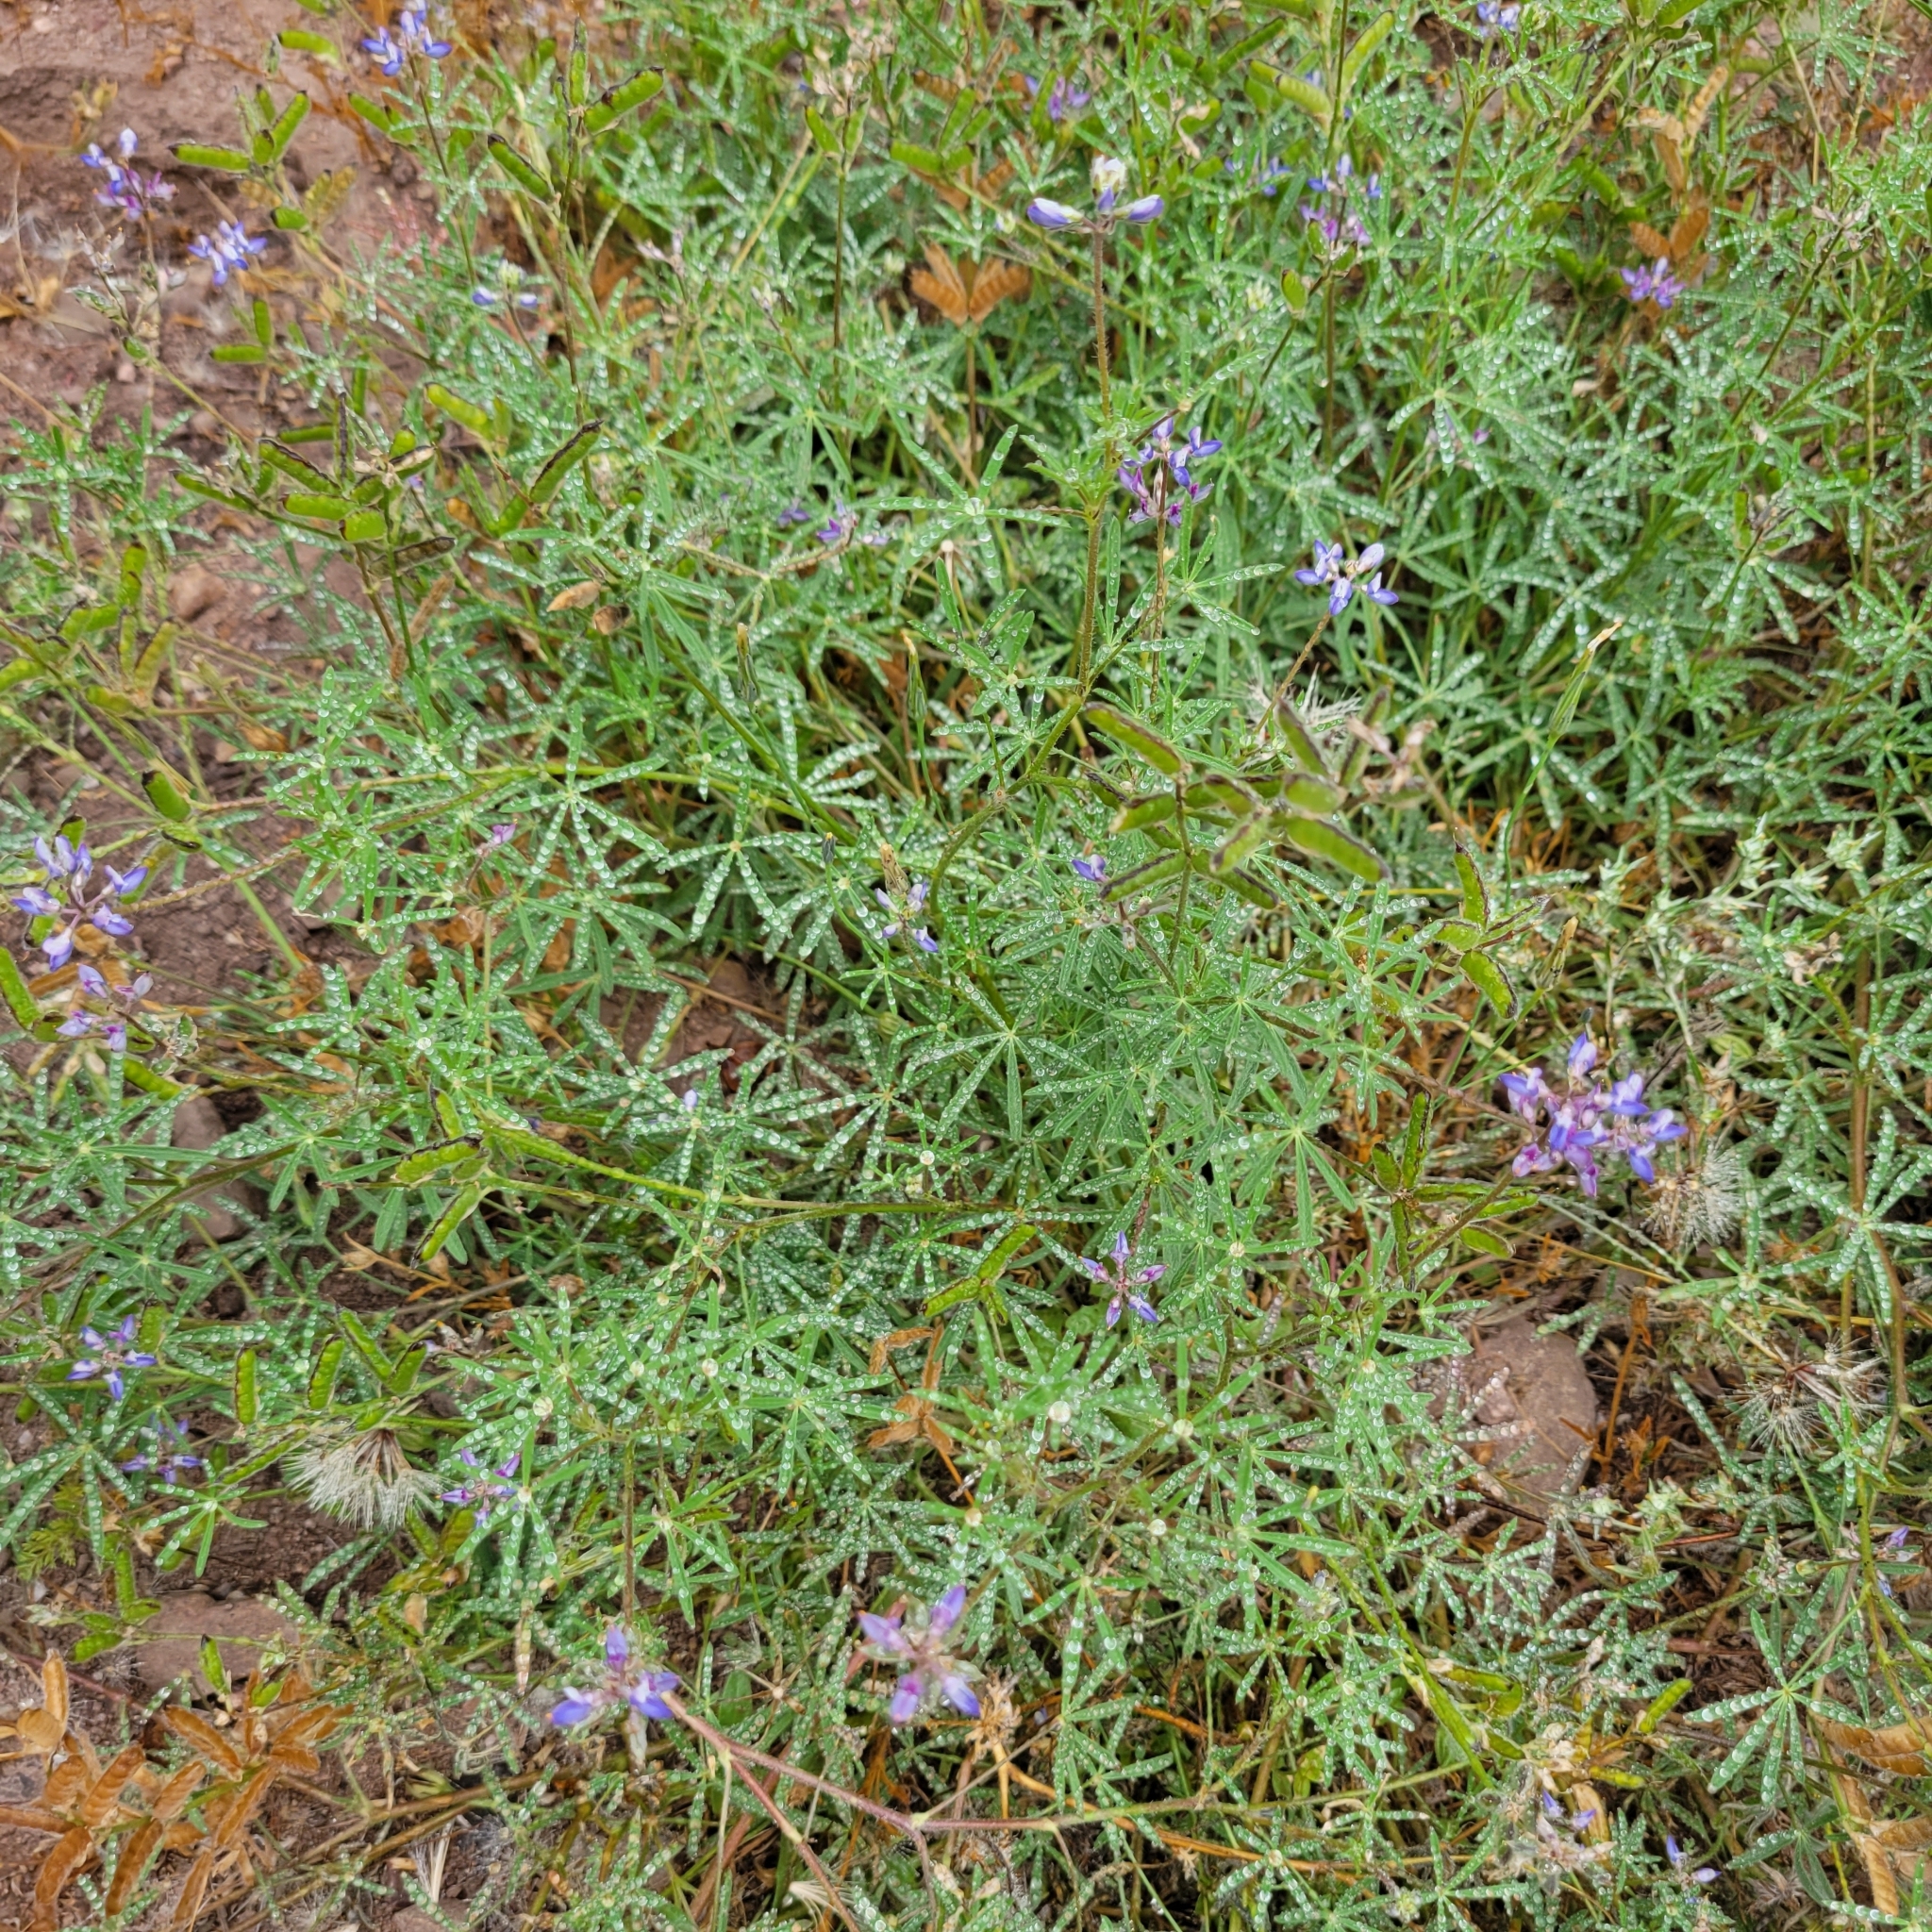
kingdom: Plantae
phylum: Tracheophyta
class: Magnoliopsida
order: Fabales
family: Fabaceae
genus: Lupinus
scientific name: Lupinus bicolor
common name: Miniature lupine
